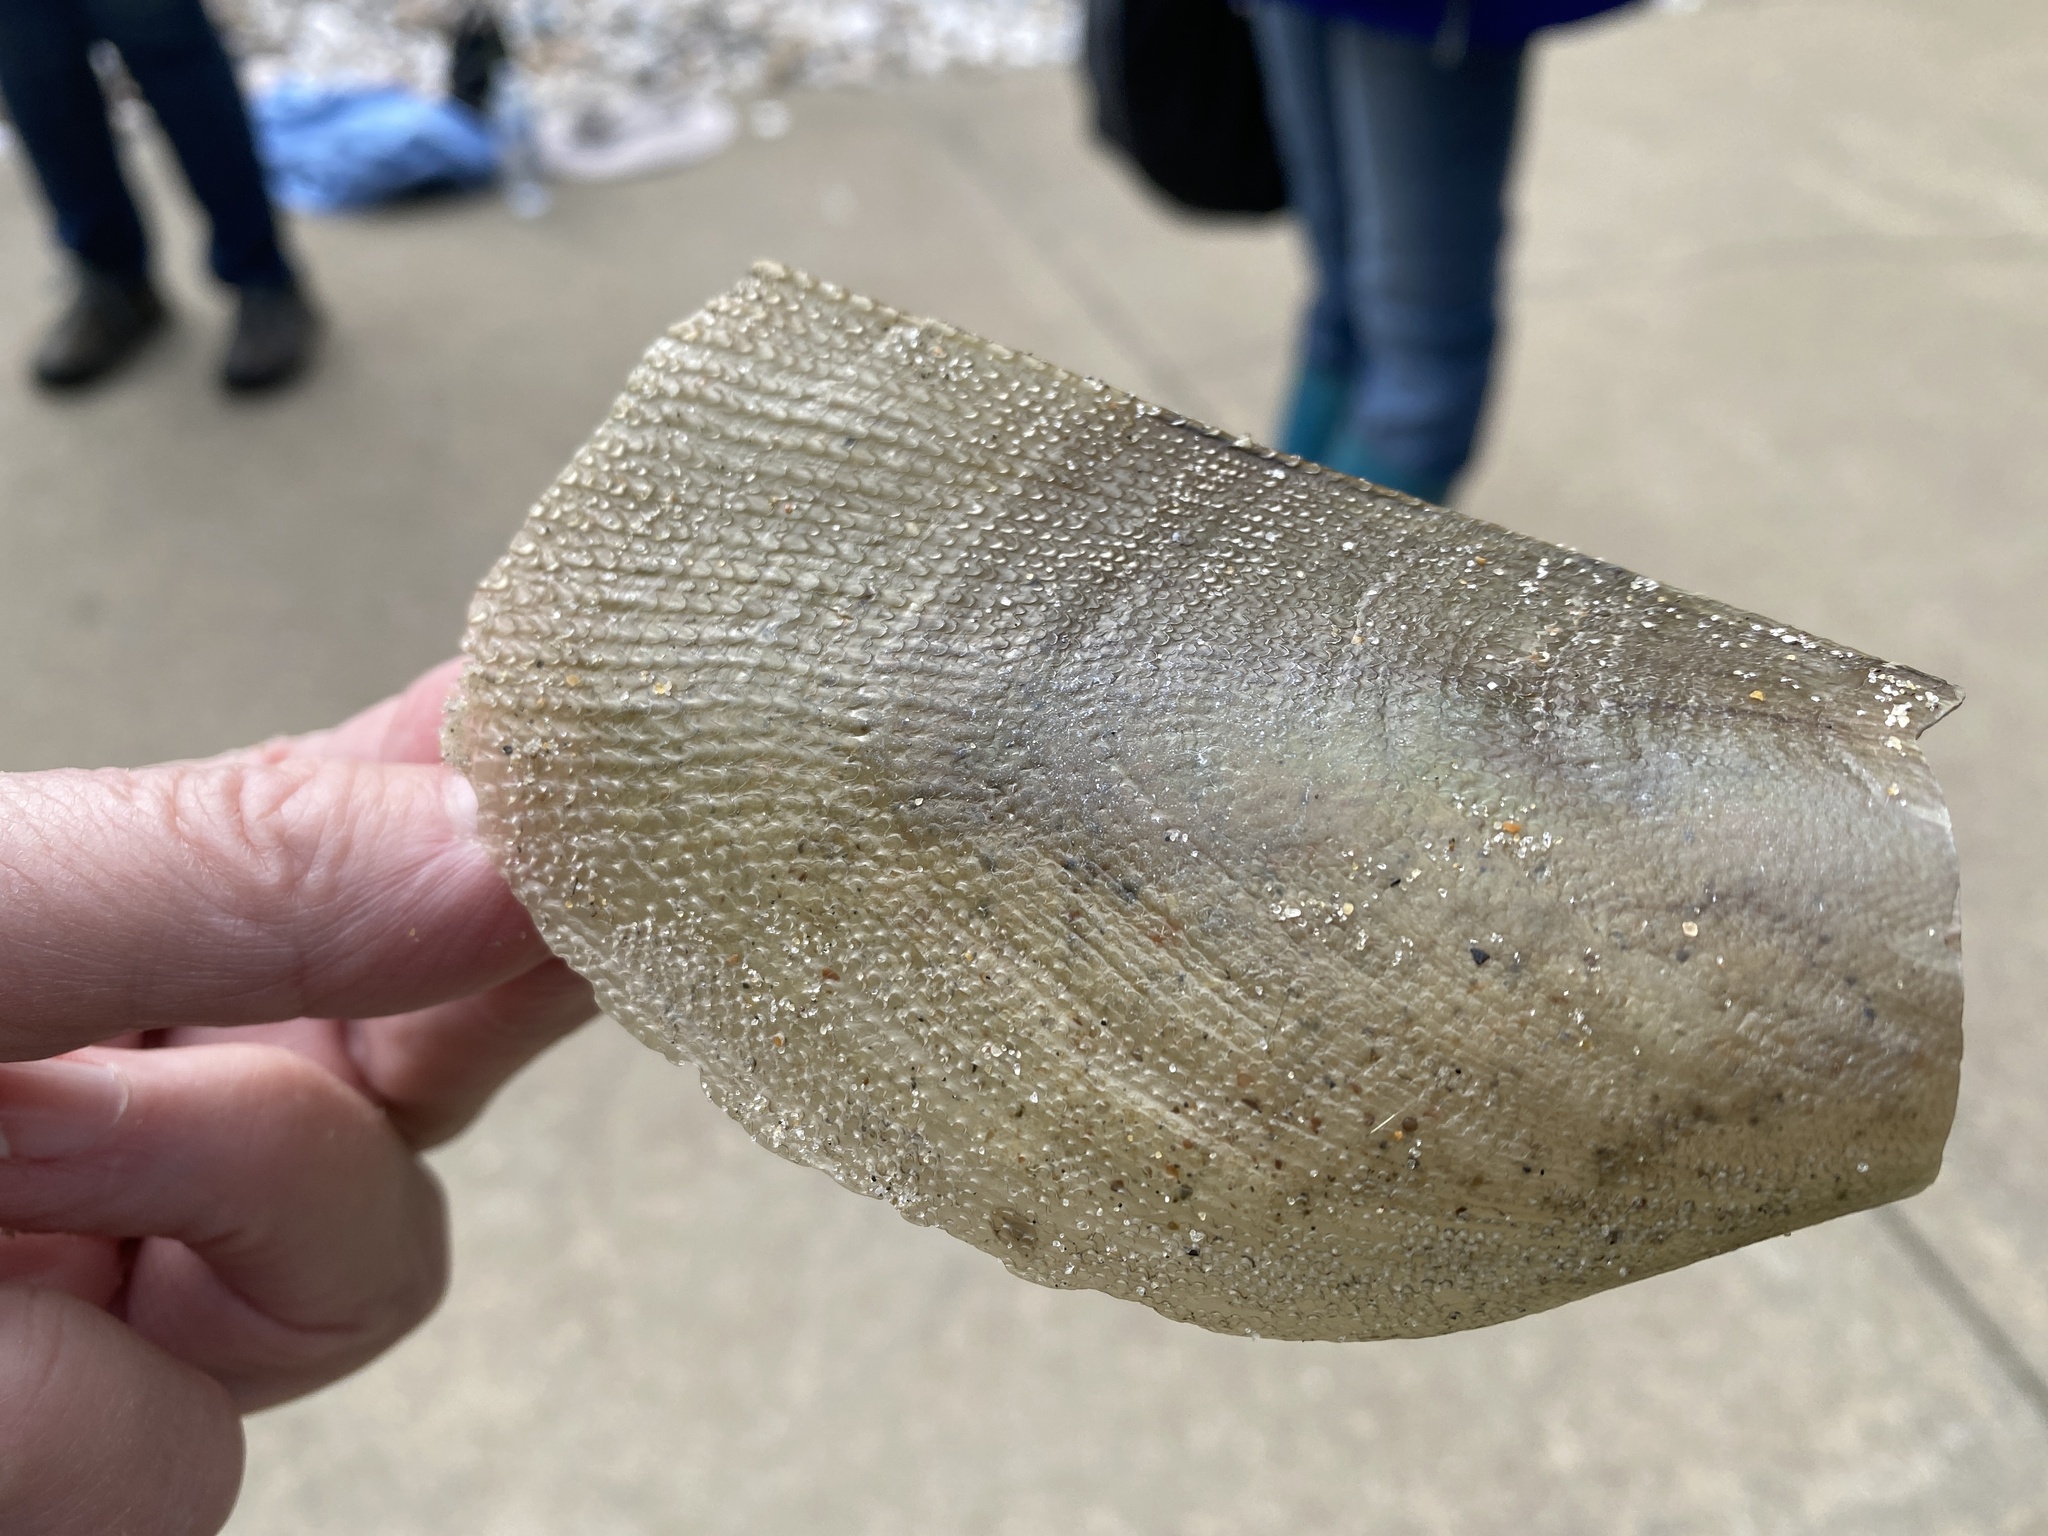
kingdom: Animalia
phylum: Mollusca
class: Bivalvia
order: Ostreida
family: Pinnidae
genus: Atrina
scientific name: Atrina serrata
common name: Saw-toothed penshell
